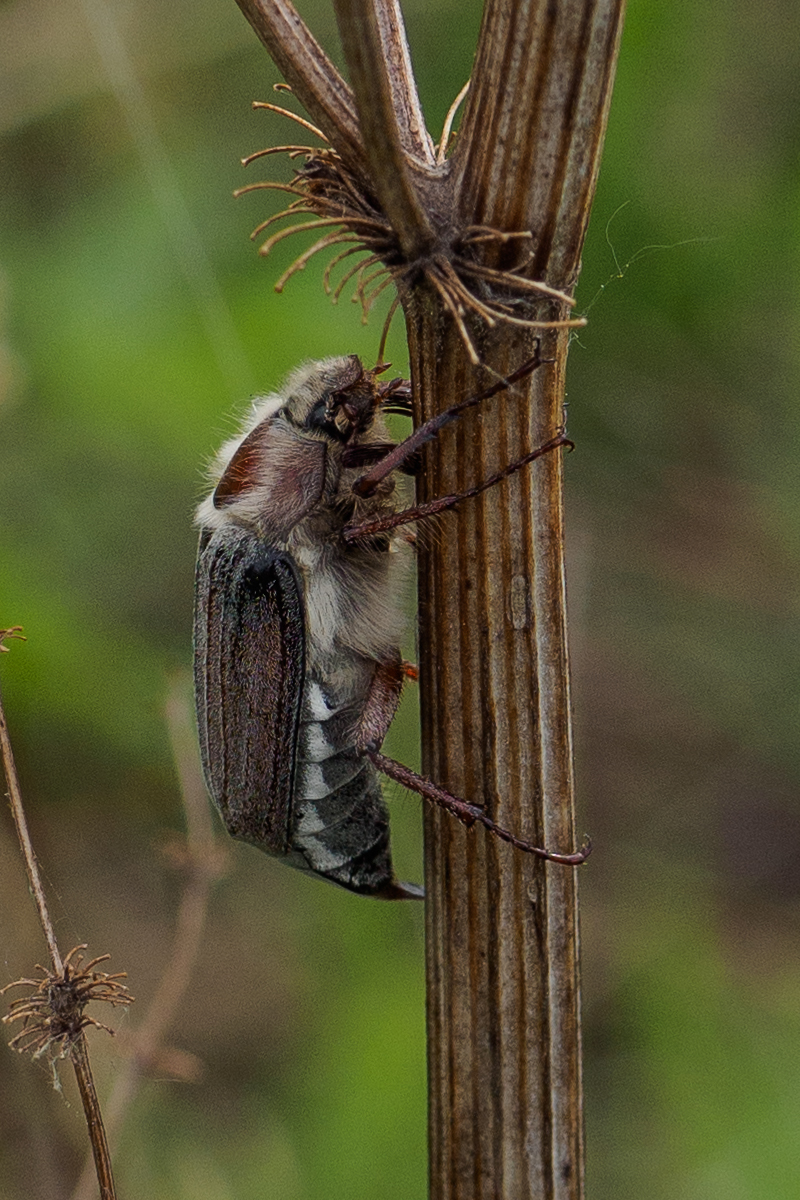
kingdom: Animalia
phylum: Arthropoda
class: Insecta
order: Coleoptera
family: Scarabaeidae
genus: Melolontha
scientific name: Melolontha hippocastani
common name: Chestnut cockchafer
